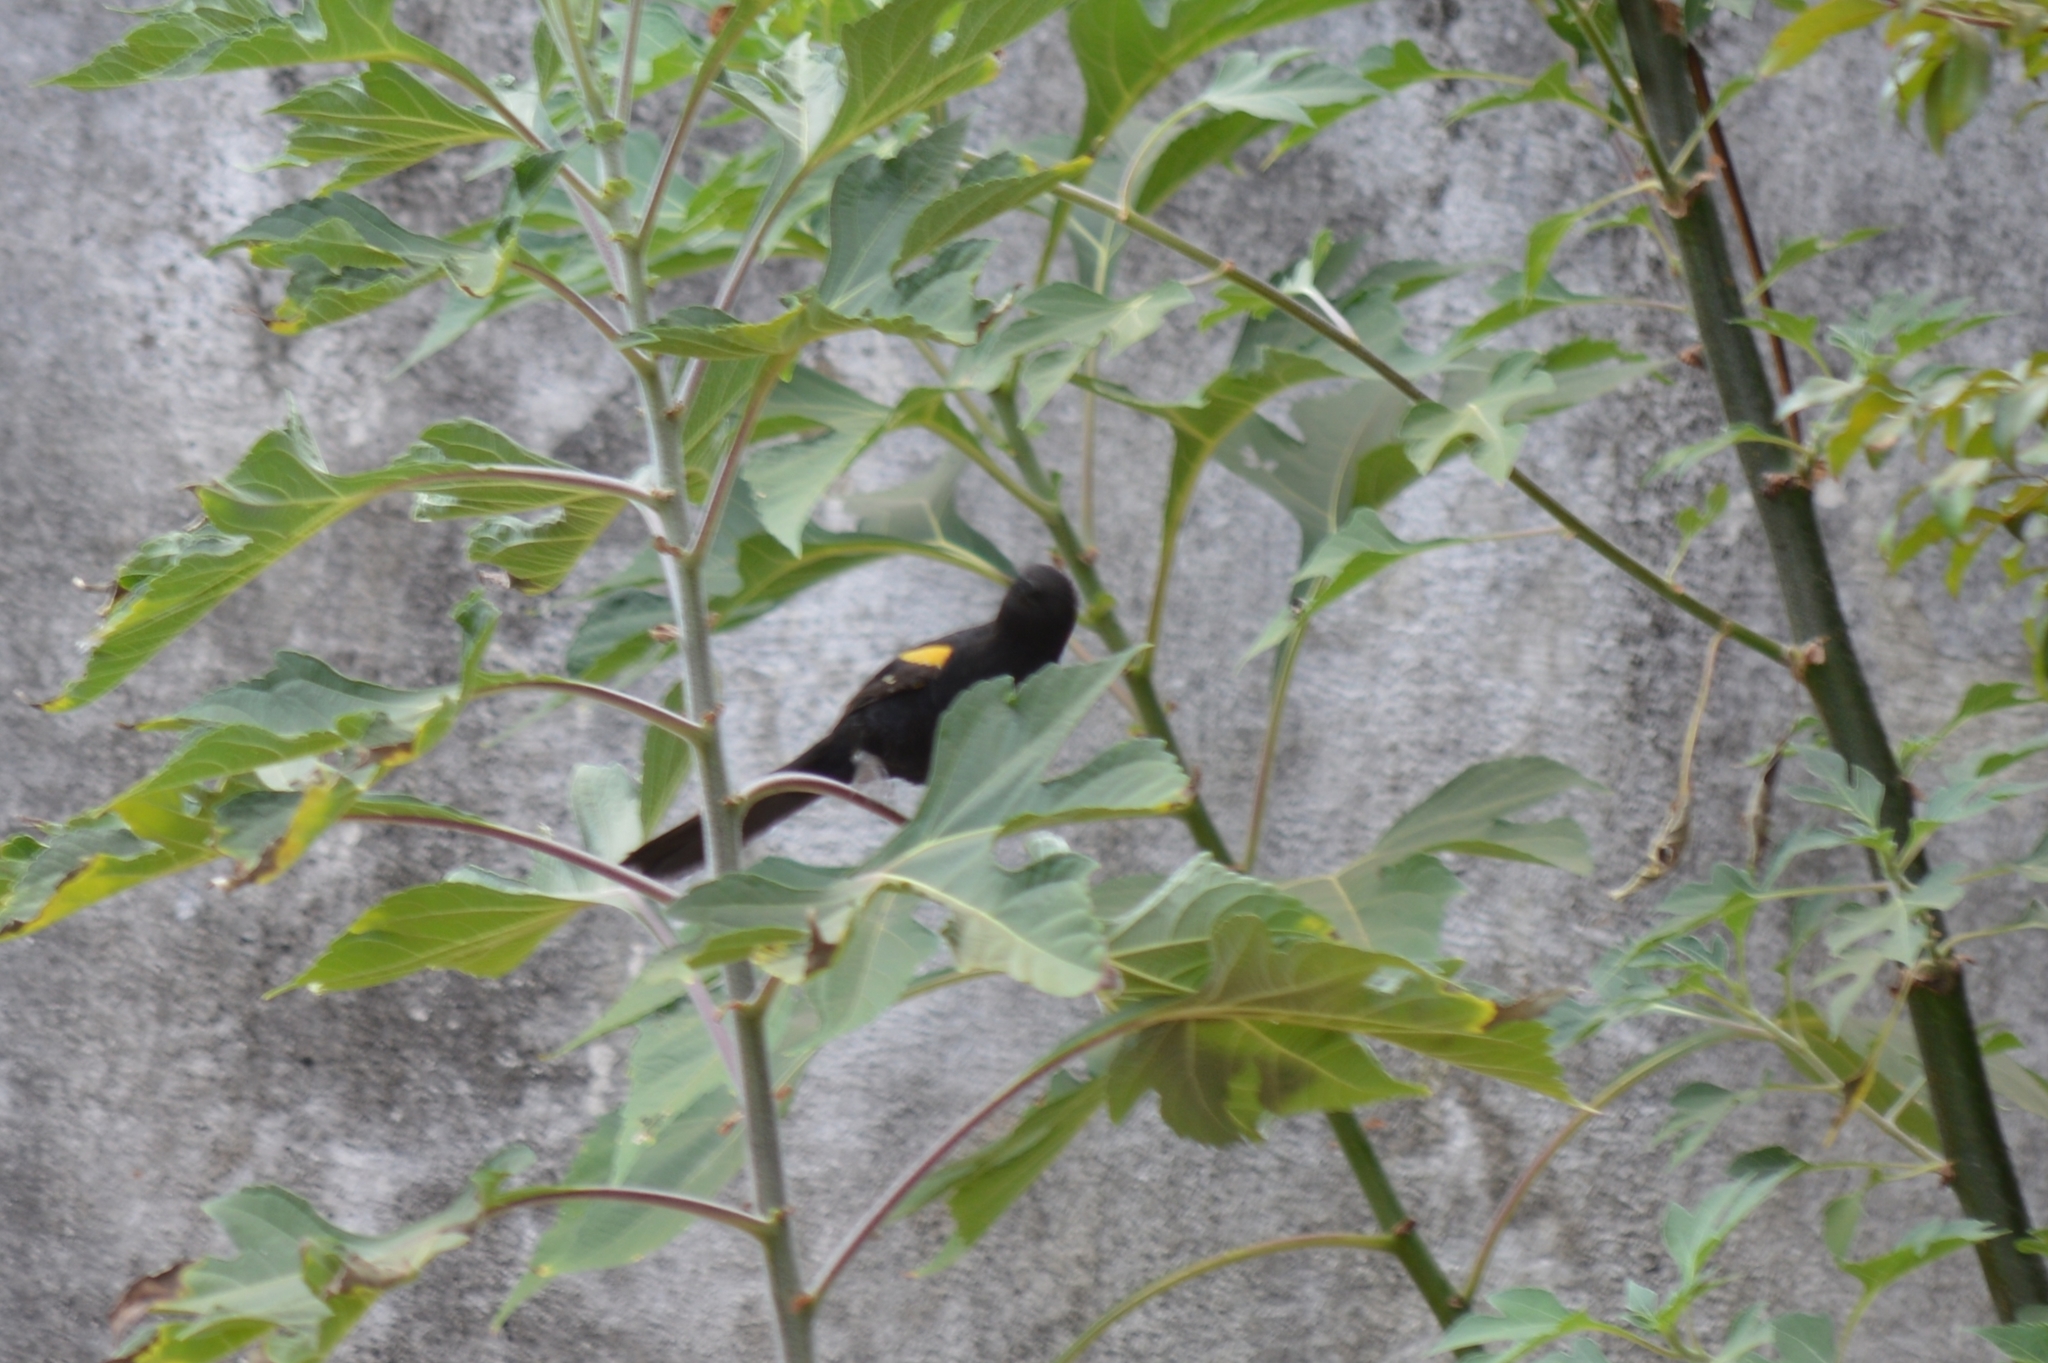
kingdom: Animalia
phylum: Chordata
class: Aves
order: Passeriformes
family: Icteridae
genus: Icterus
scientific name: Icterus cayanensis
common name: Epaulet oriole
